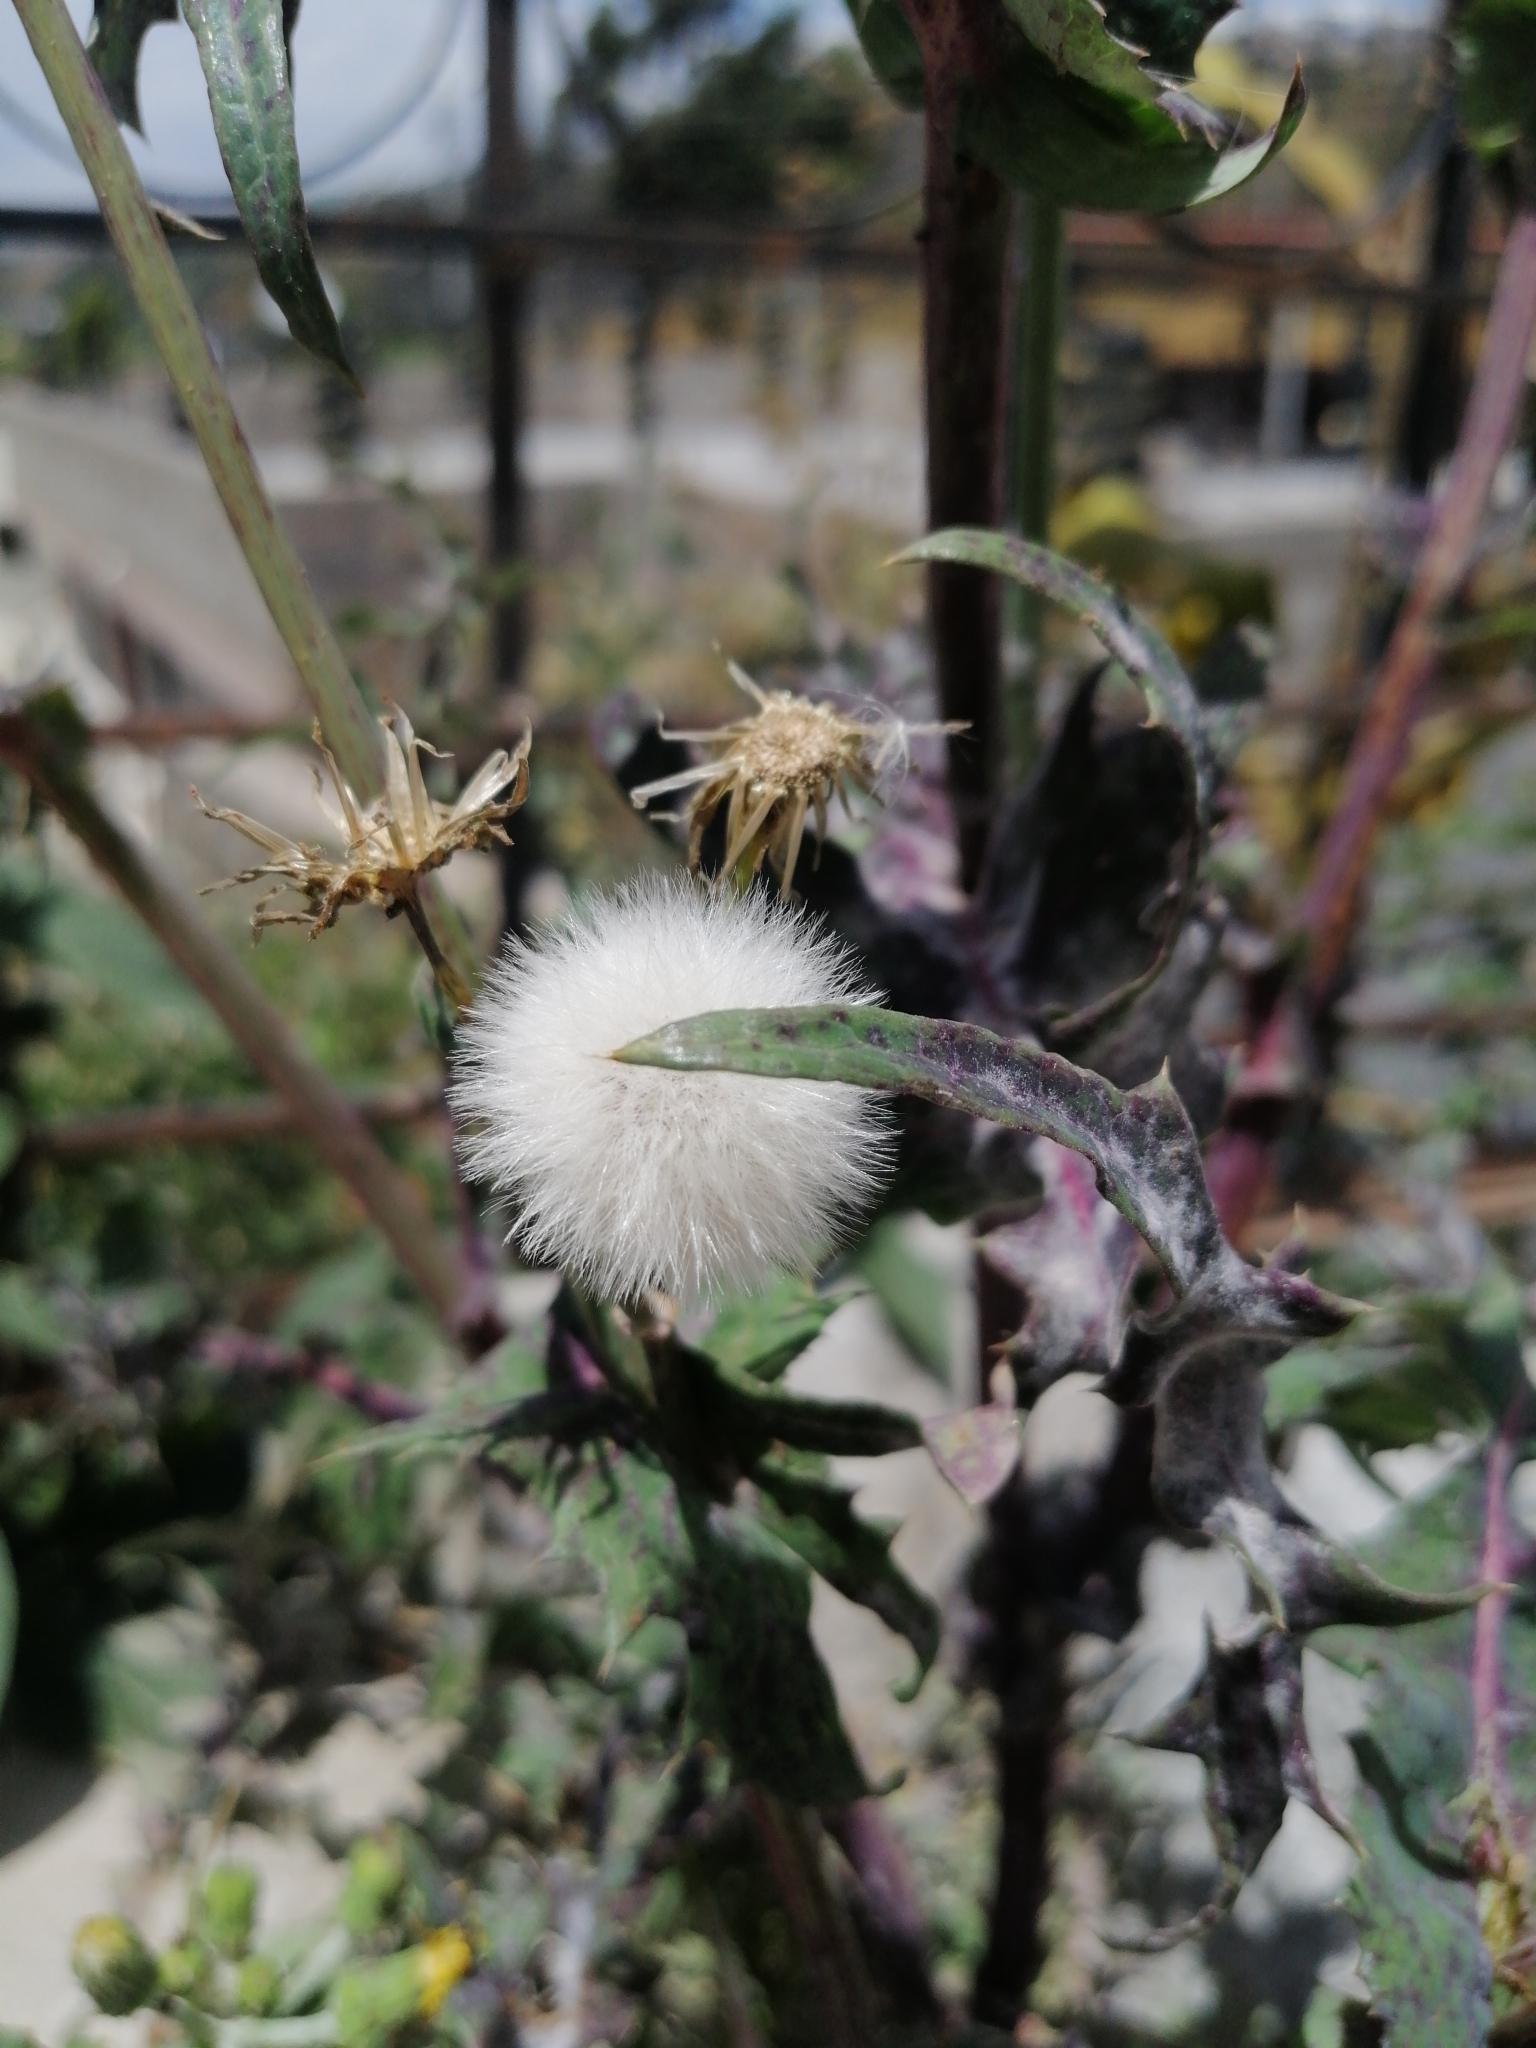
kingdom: Plantae
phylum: Tracheophyta
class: Magnoliopsida
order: Asterales
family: Asteraceae
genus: Sonchus
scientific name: Sonchus oleraceus
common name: Common sowthistle
